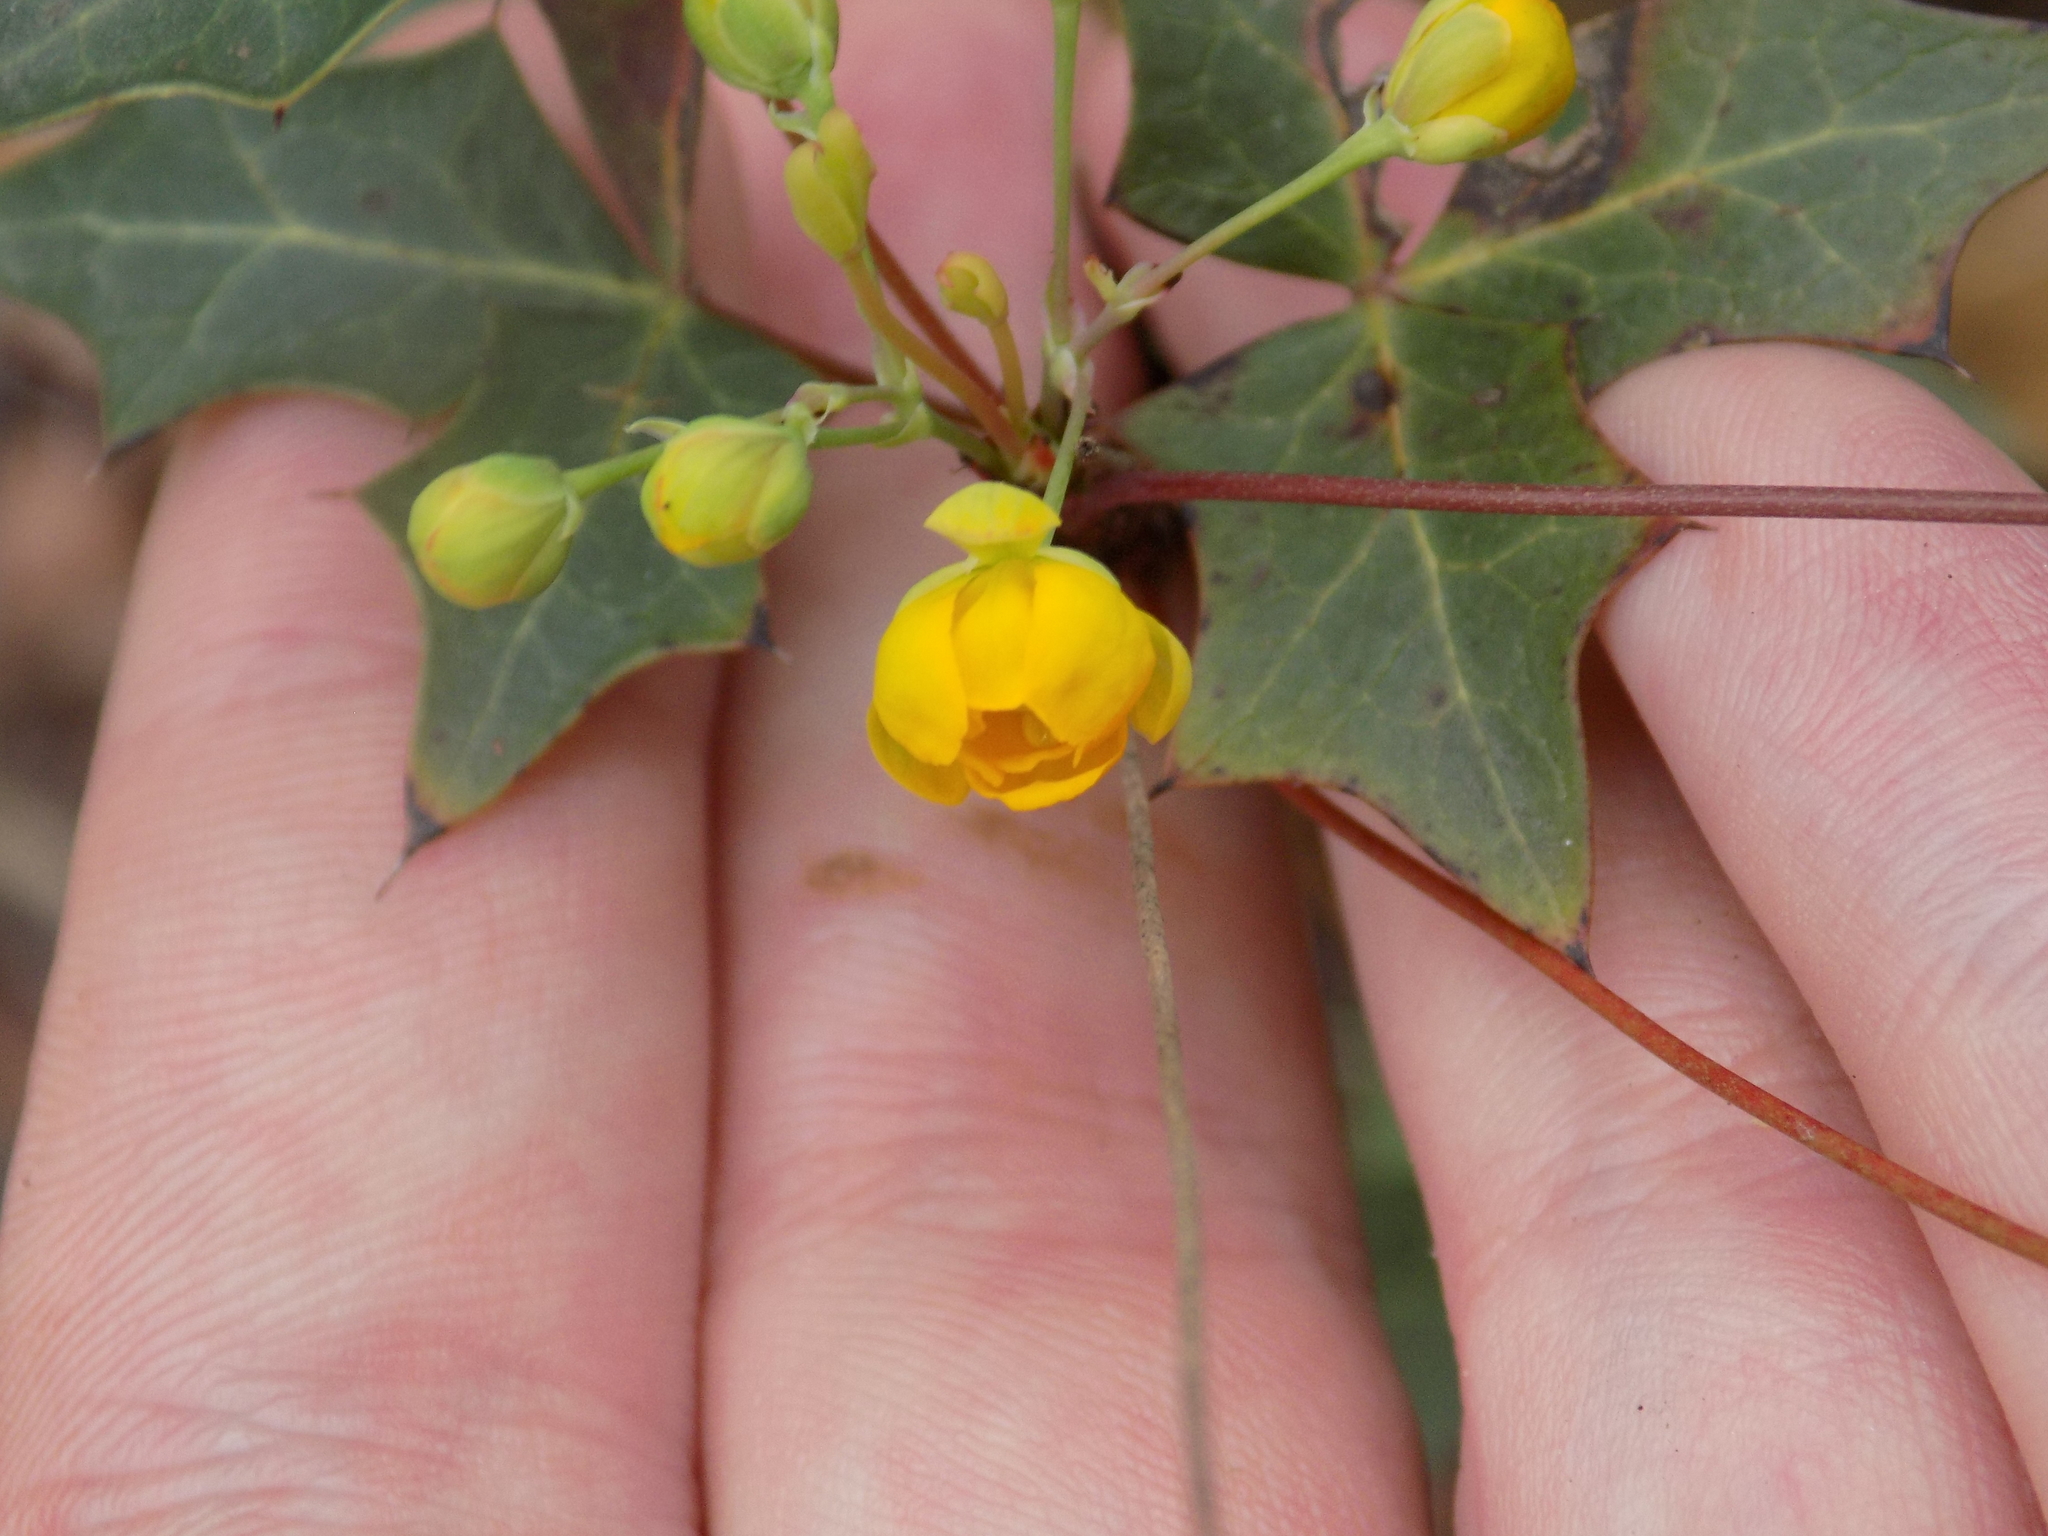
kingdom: Plantae
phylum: Tracheophyta
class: Magnoliopsida
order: Ranunculales
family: Berberidaceae
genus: Alloberberis
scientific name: Alloberberis trifoliolata
